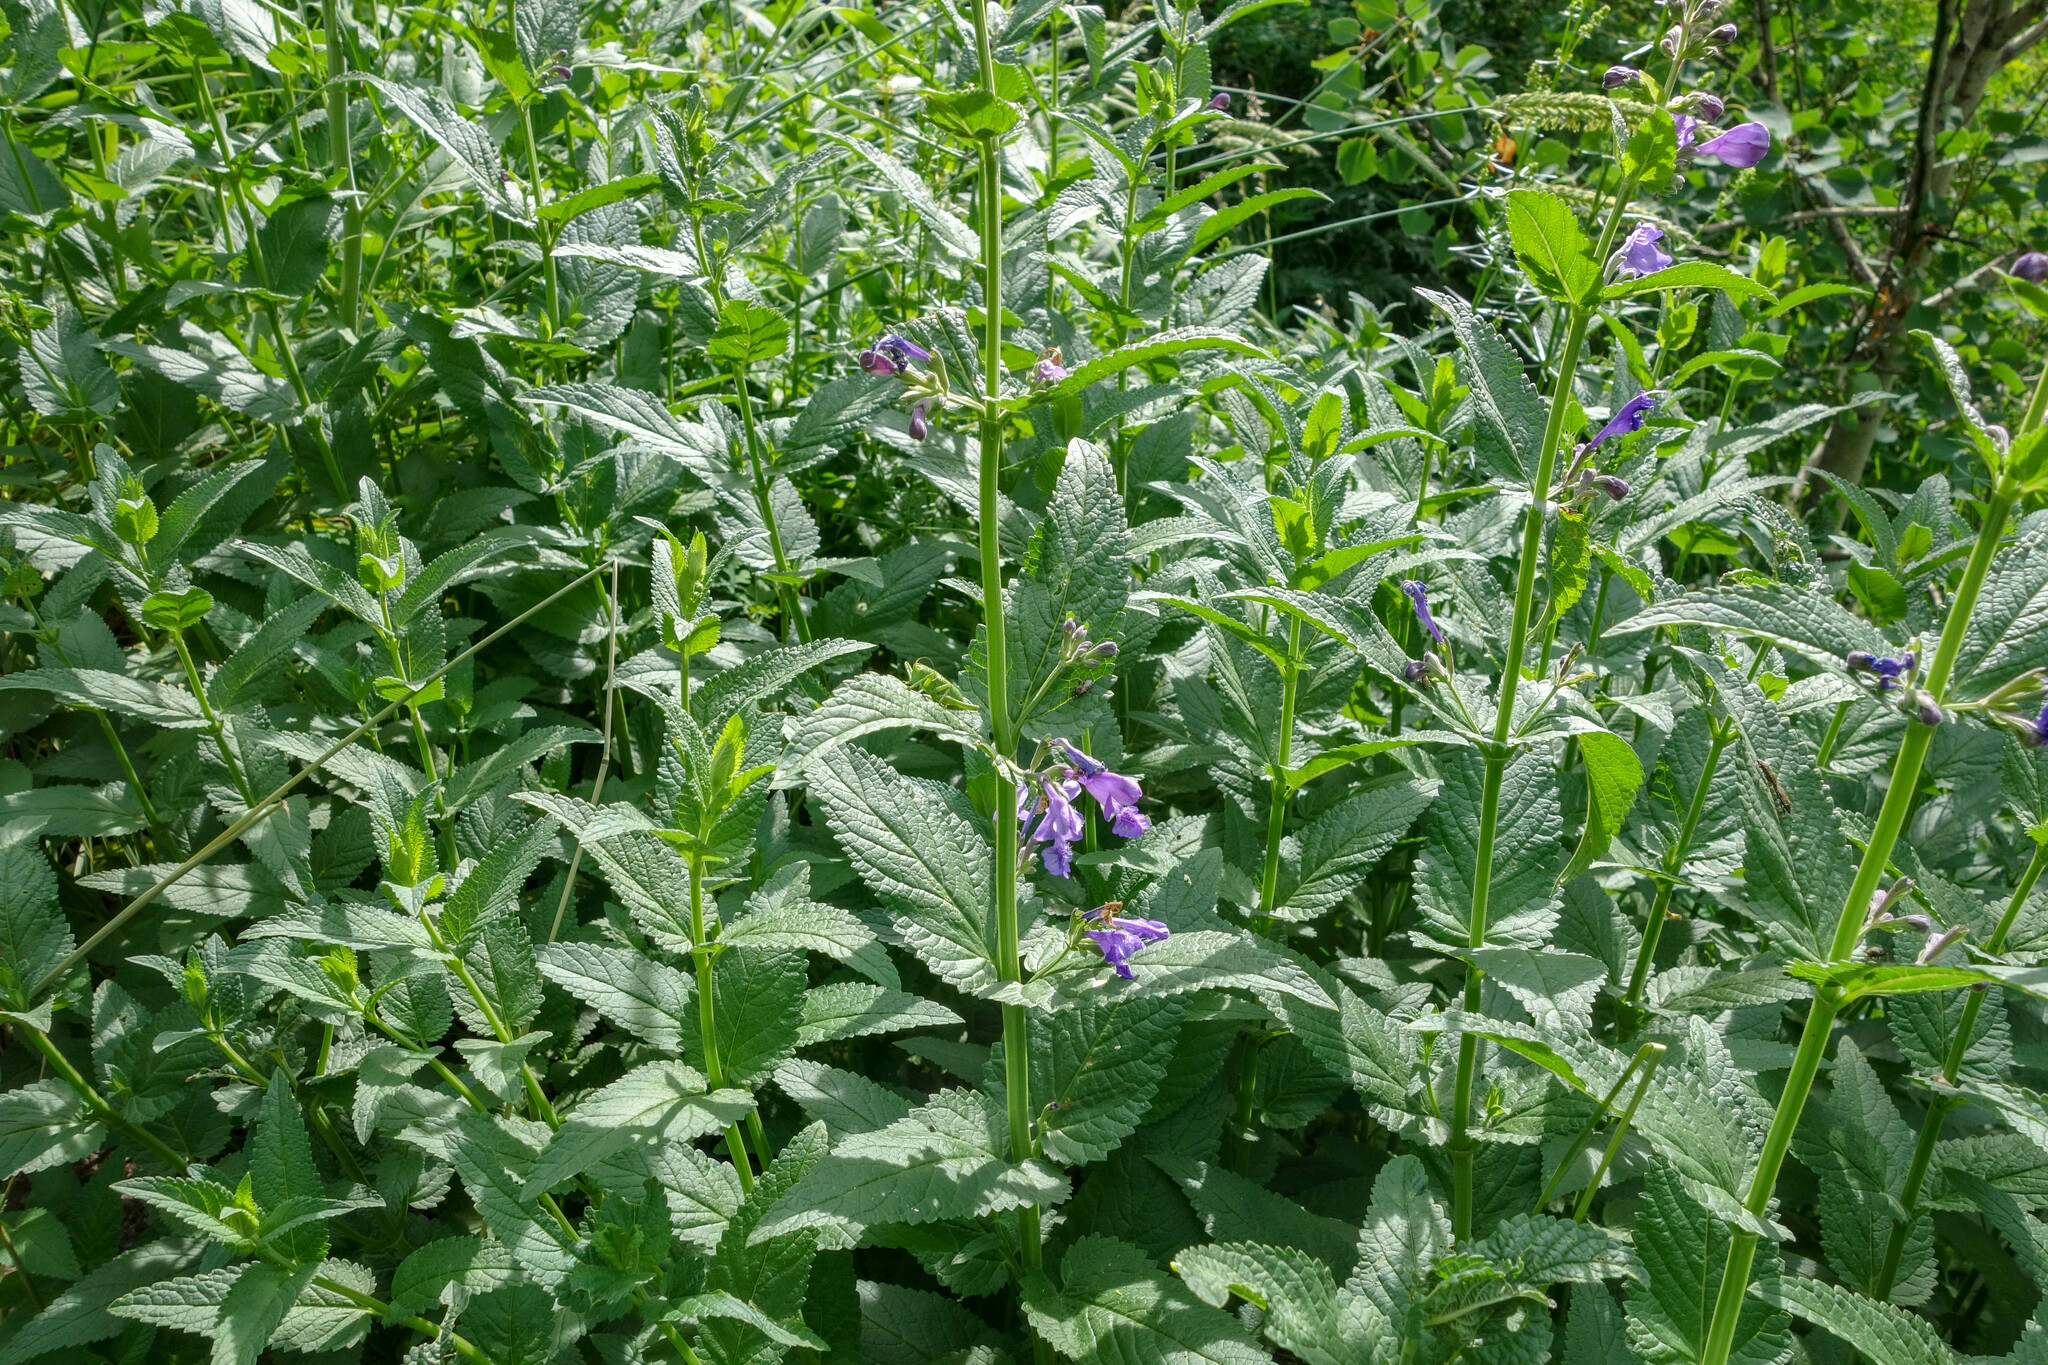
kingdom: Plantae
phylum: Tracheophyta
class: Magnoliopsida
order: Lamiales
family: Lamiaceae
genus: Nepeta
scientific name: Nepeta sibirica
